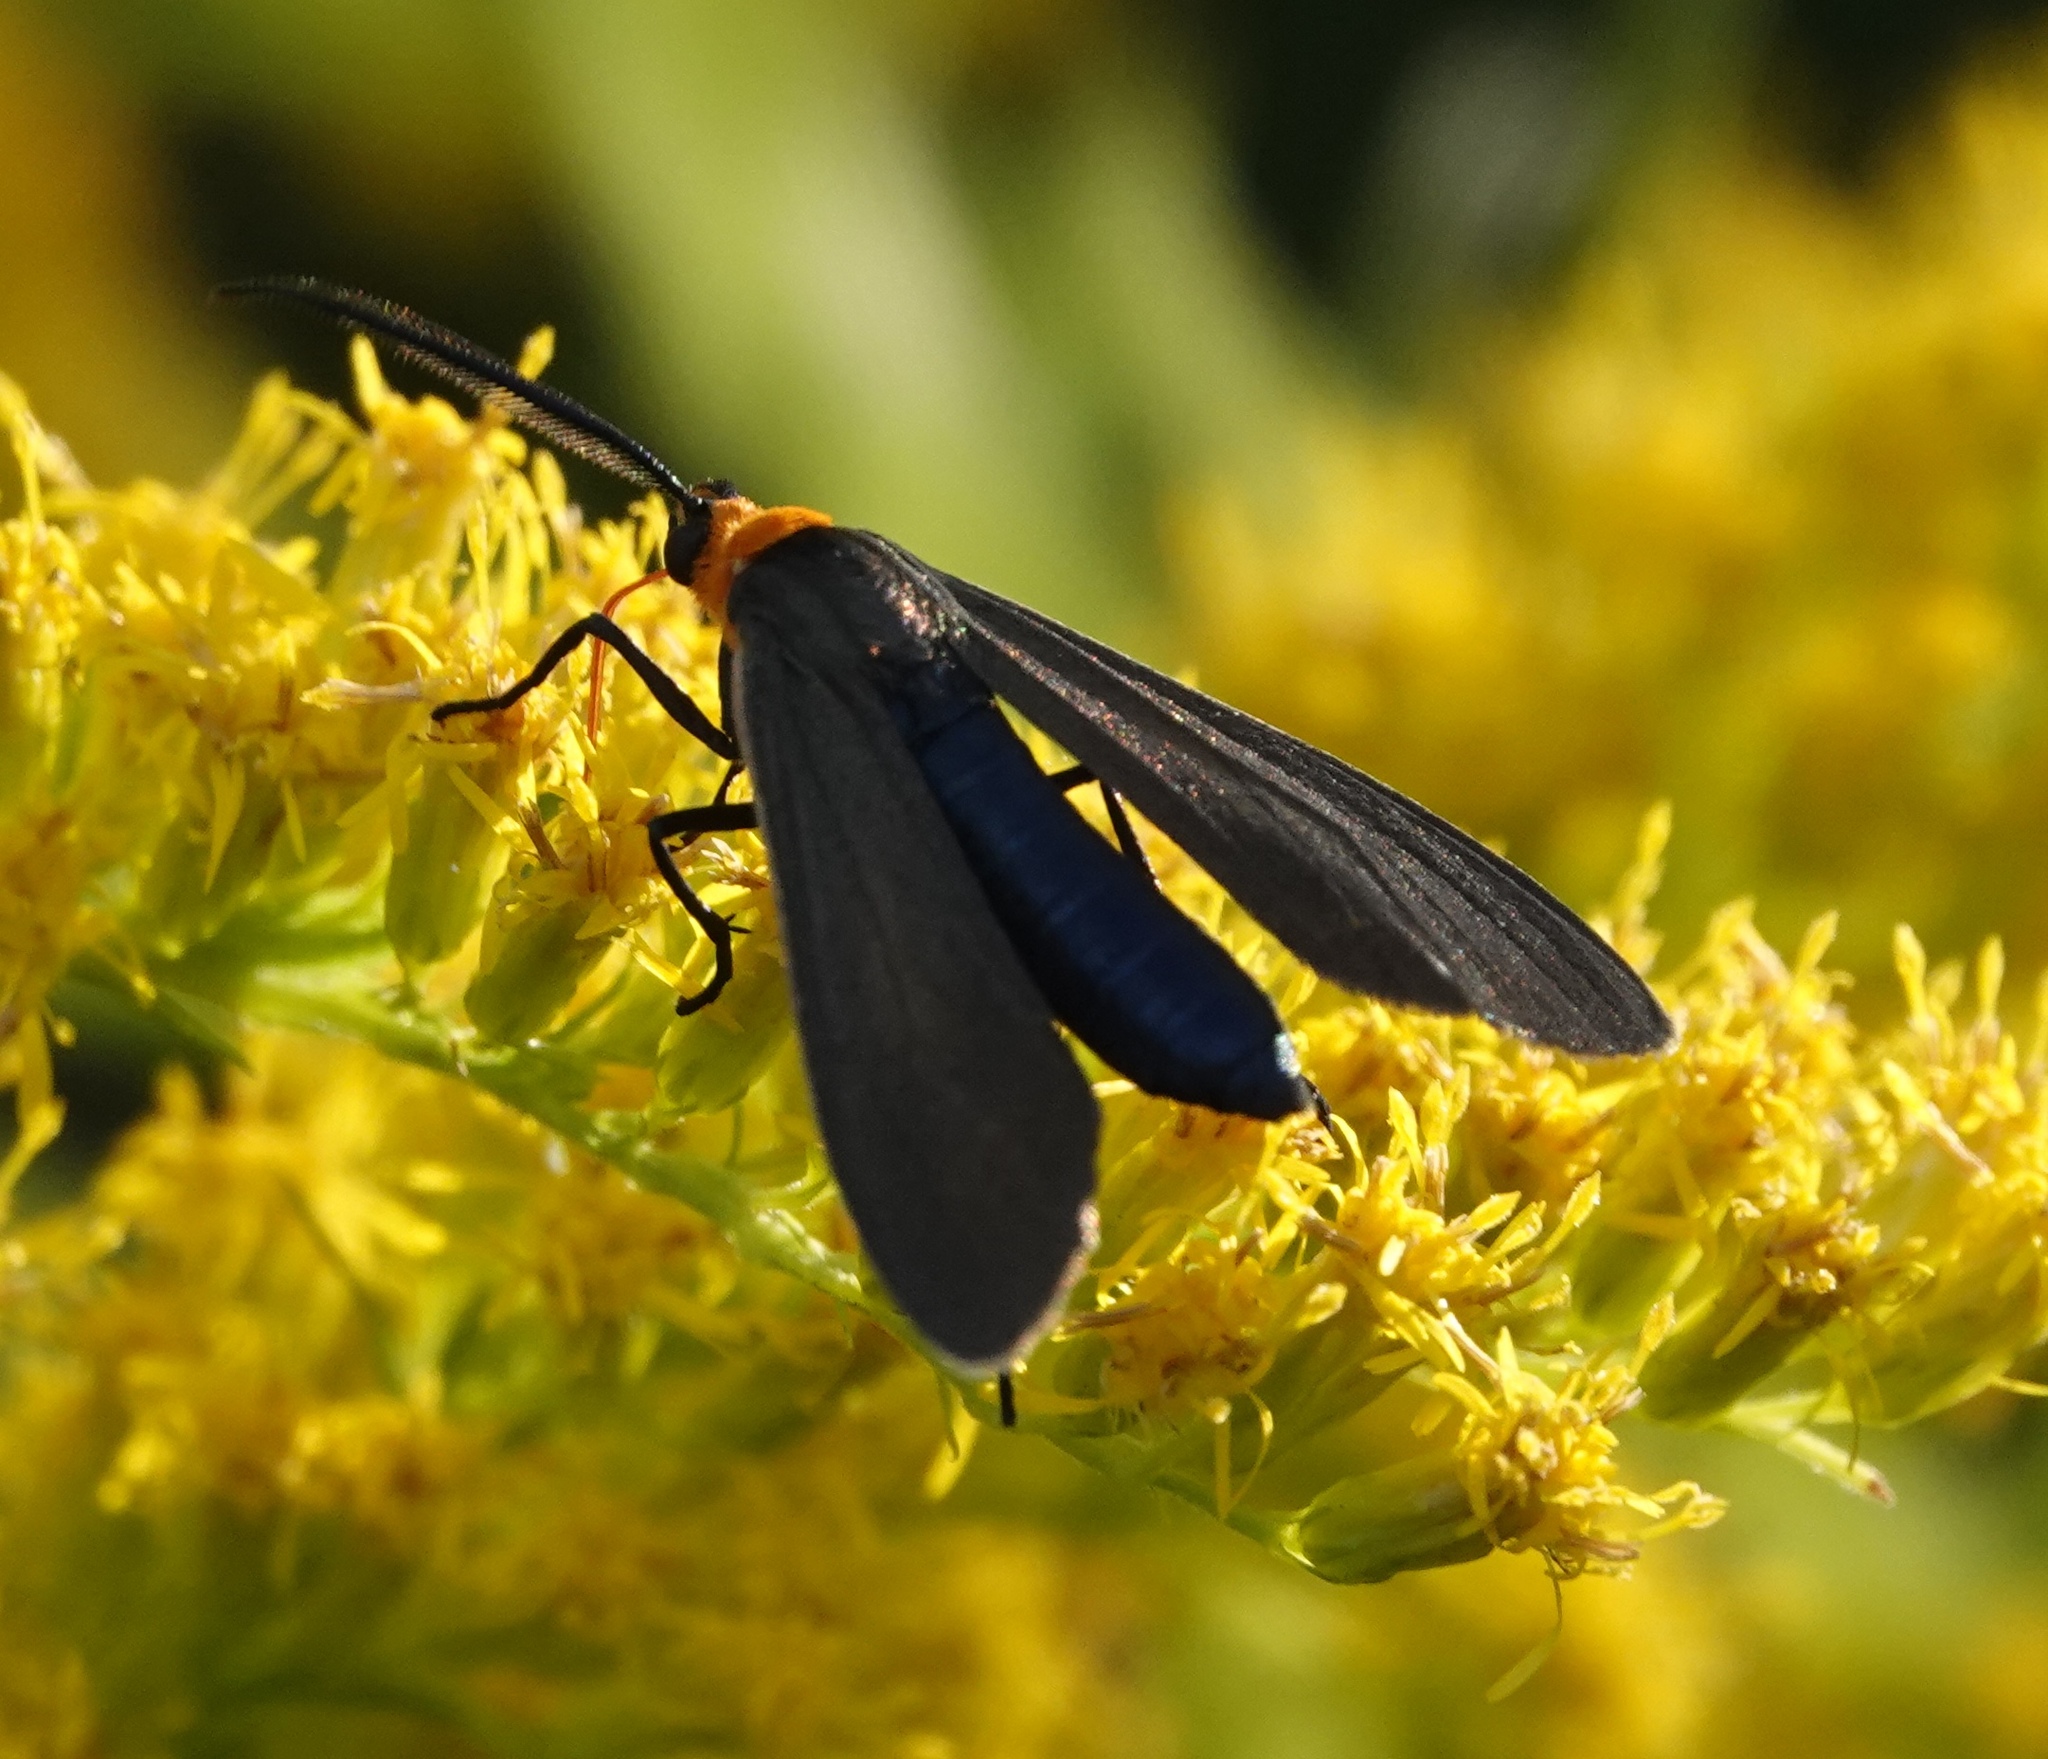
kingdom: Animalia
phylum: Arthropoda
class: Insecta
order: Lepidoptera
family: Erebidae
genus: Cisseps
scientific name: Cisseps fulvicollis
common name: Yellow-collared scape moth
